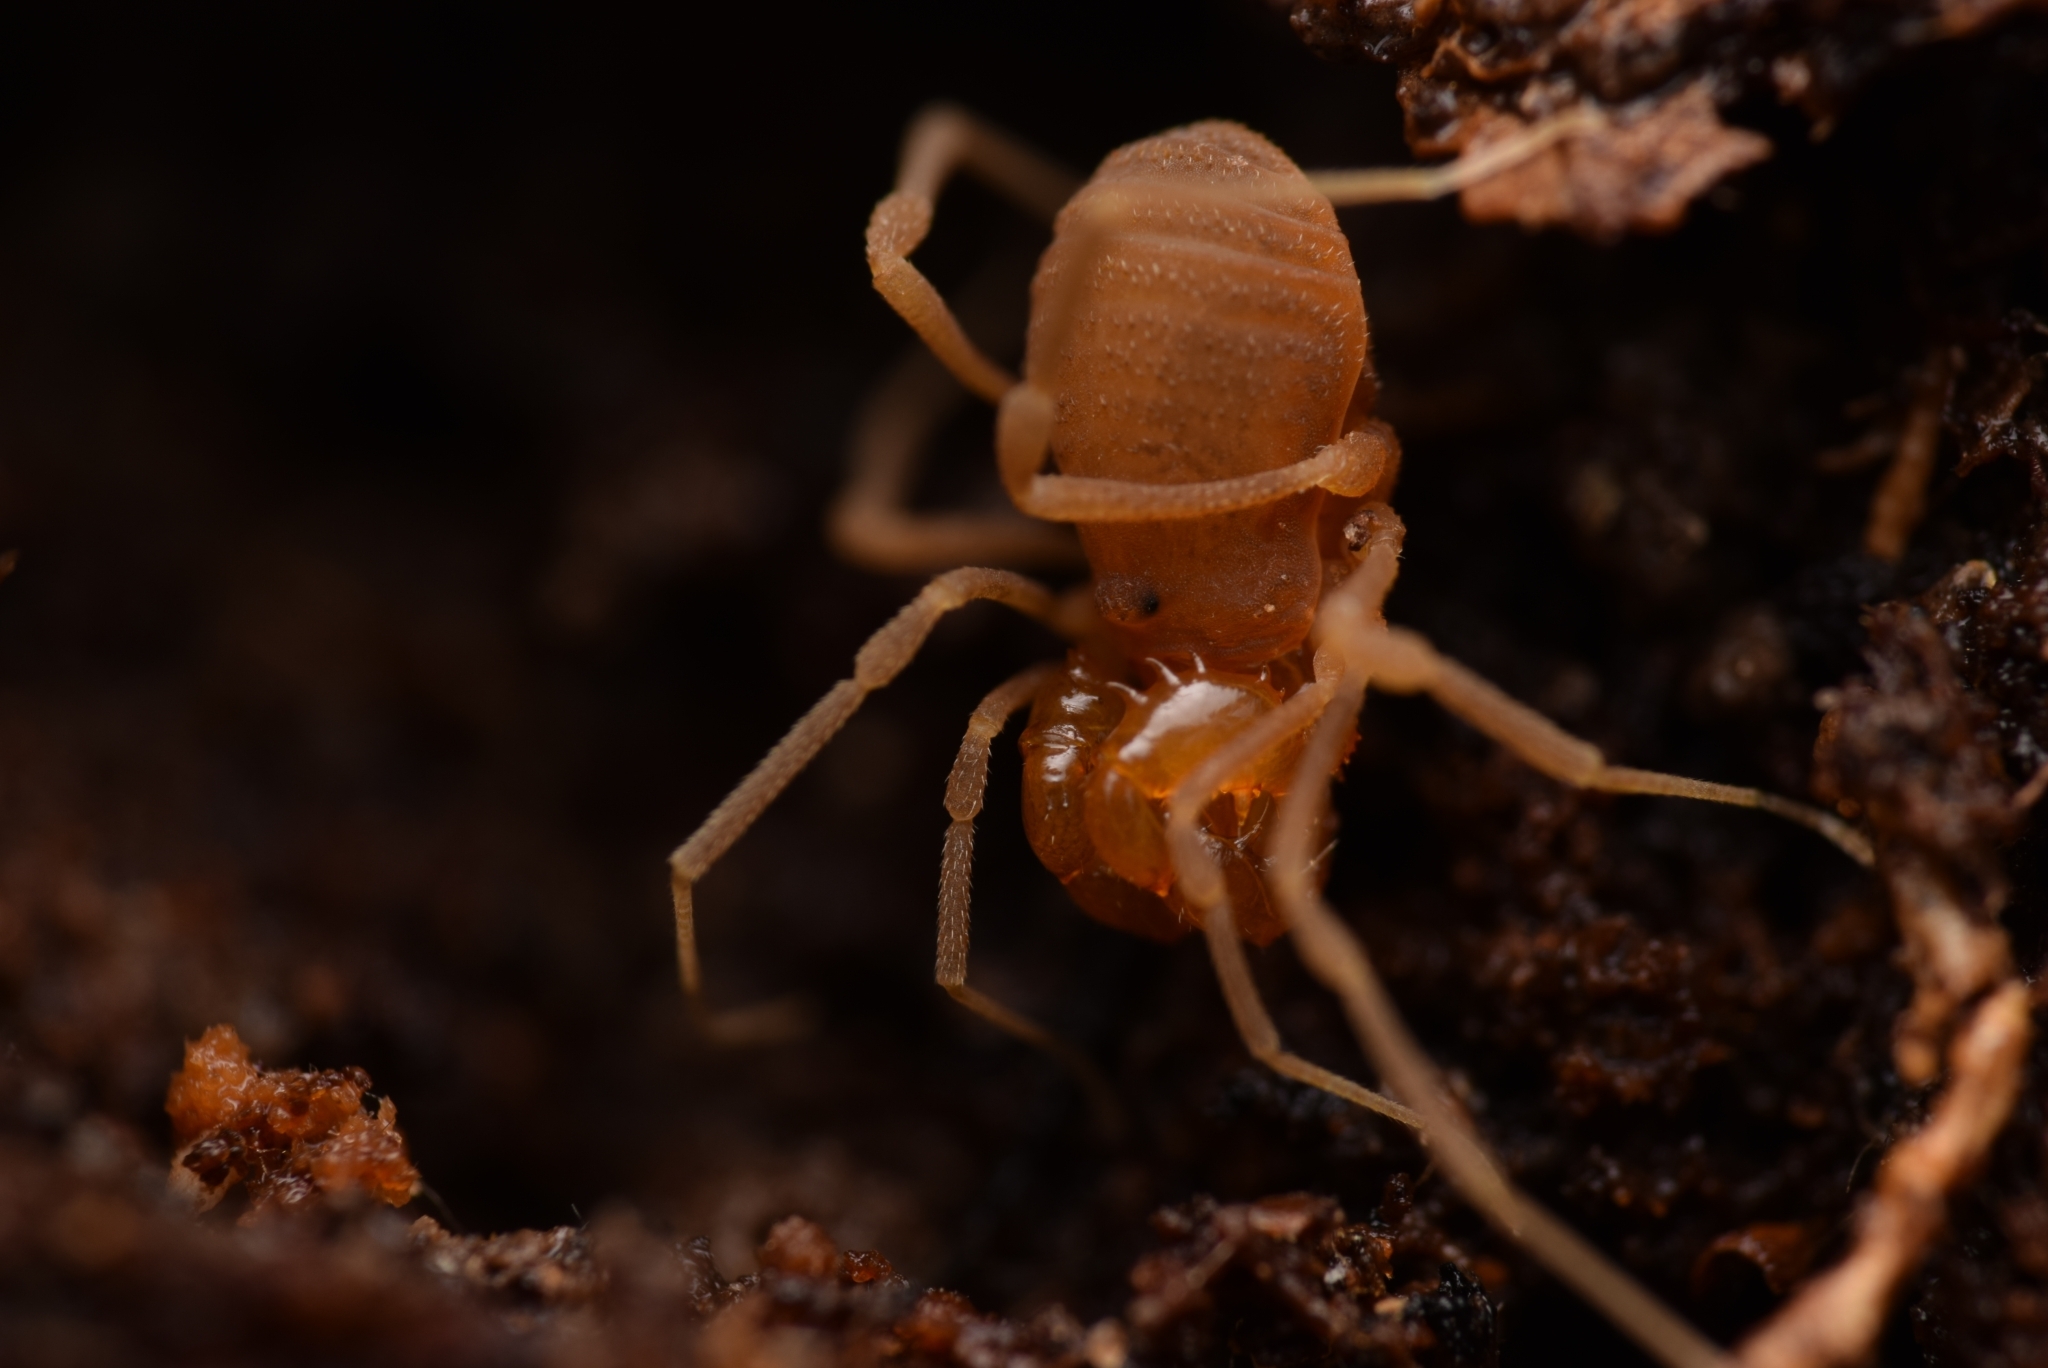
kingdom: Animalia
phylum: Arthropoda
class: Arachnida
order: Opiliones
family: Cladonychiidae
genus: Holoscotolemon
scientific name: Holoscotolemon querilhaci
